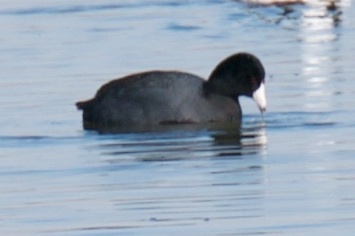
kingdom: Animalia
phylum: Chordata
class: Aves
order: Gruiformes
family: Rallidae
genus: Fulica
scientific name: Fulica americana
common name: American coot
